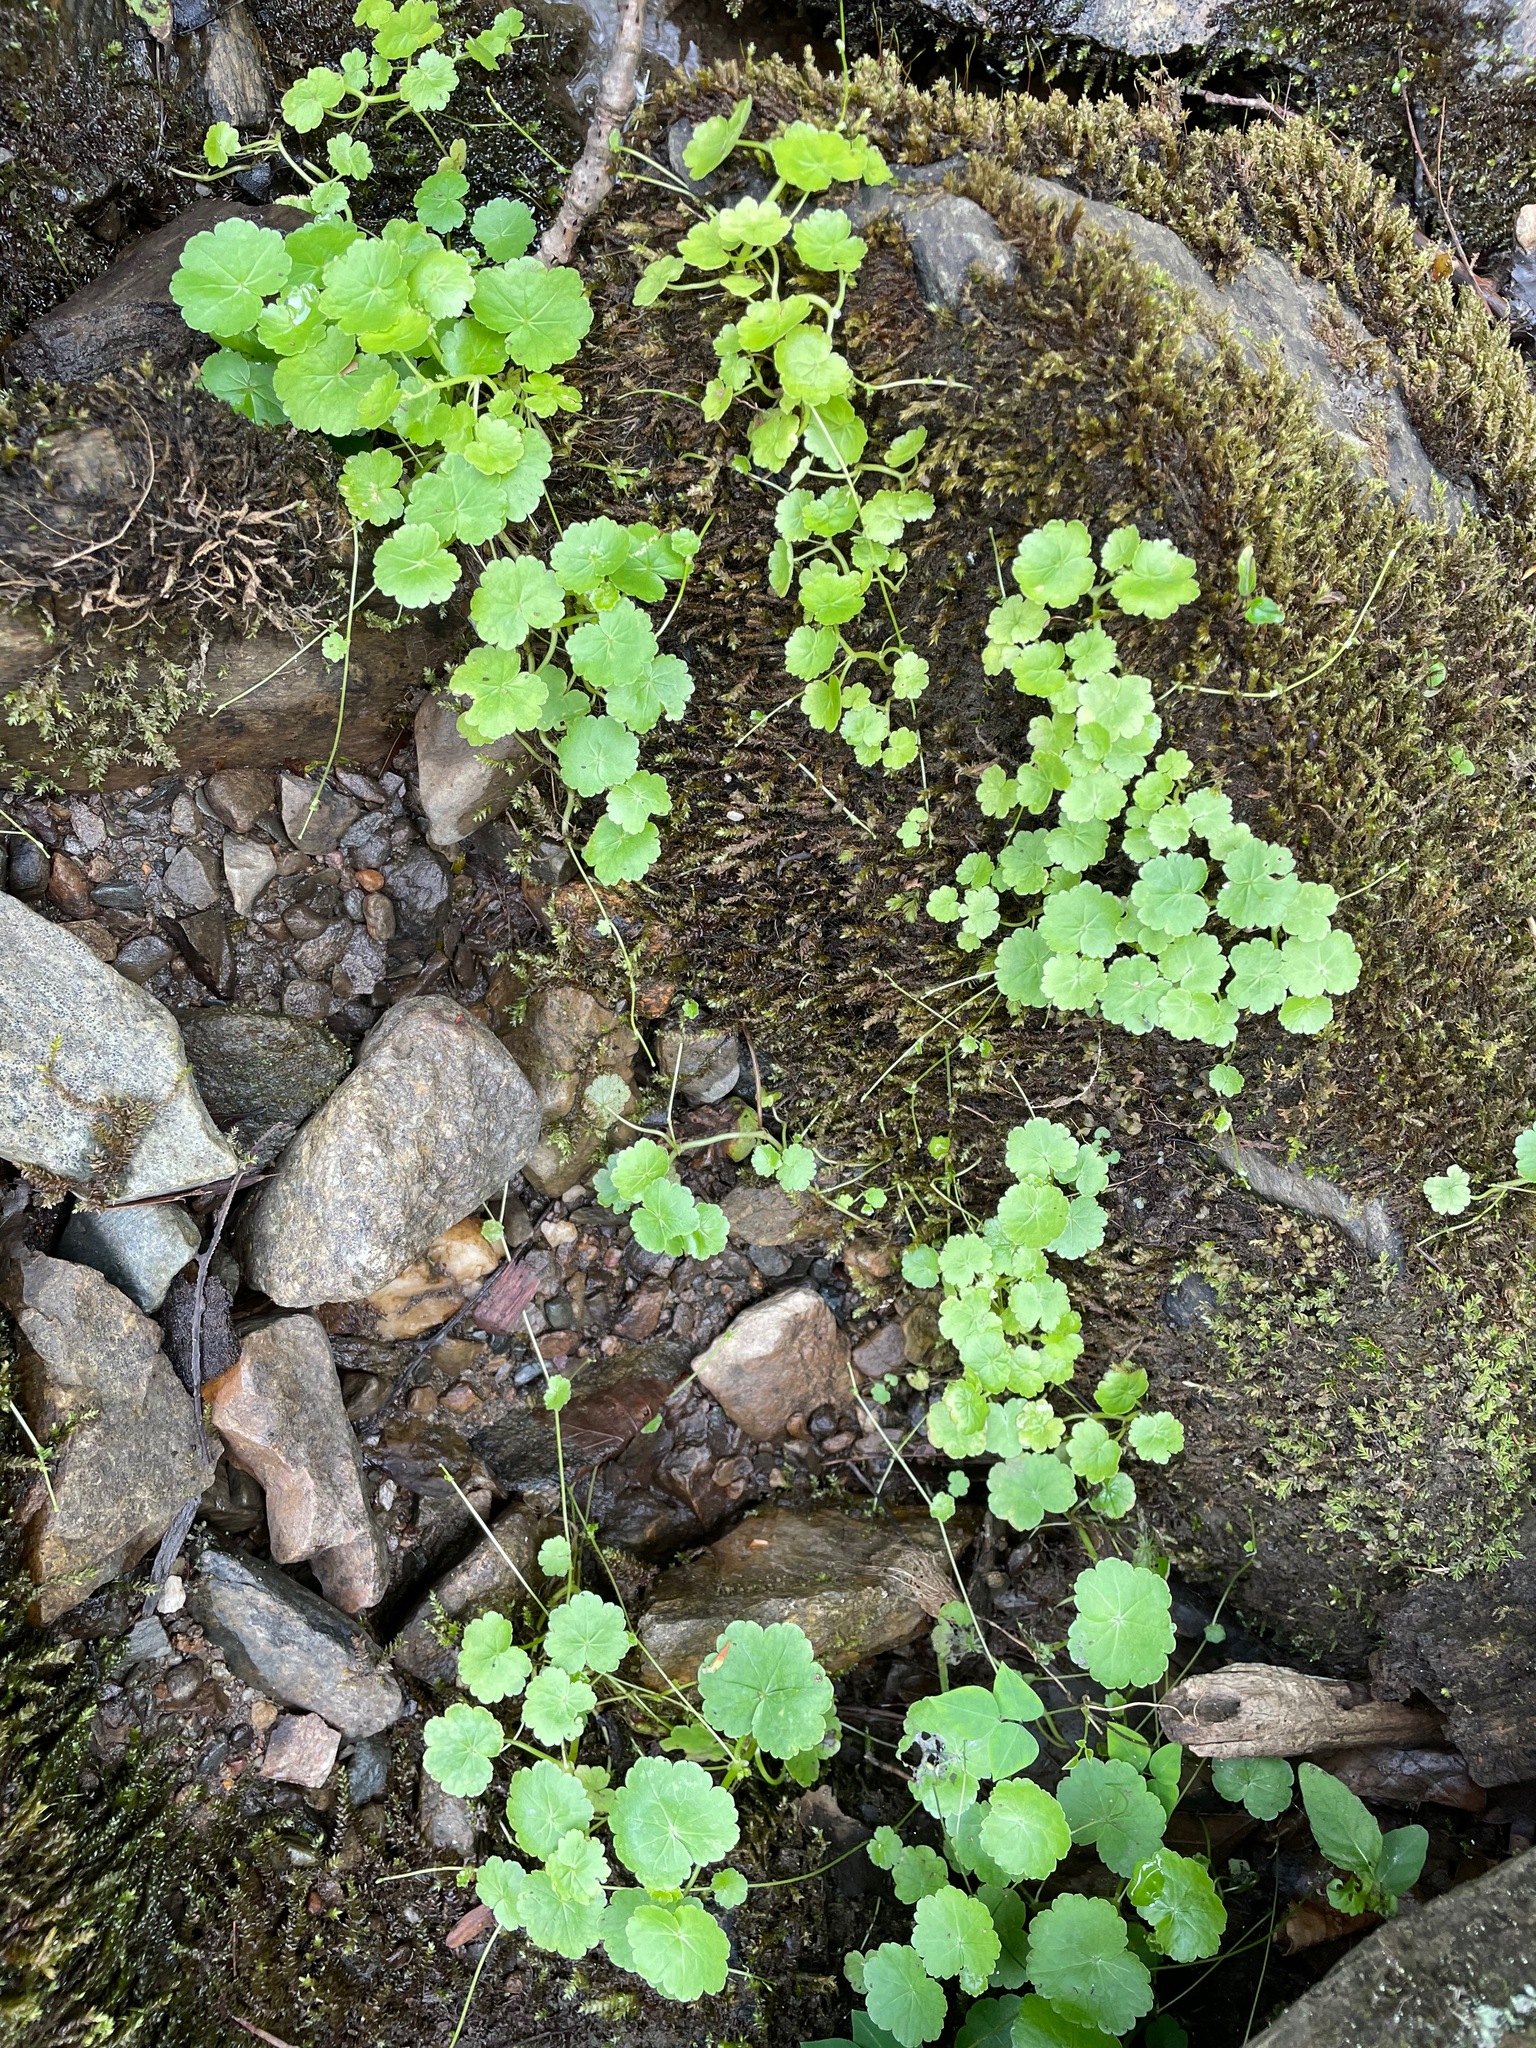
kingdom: Plantae
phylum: Tracheophyta
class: Magnoliopsida
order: Apiales
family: Araliaceae
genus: Hydrocotyle
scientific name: Hydrocotyle americana
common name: American water-pennywort
